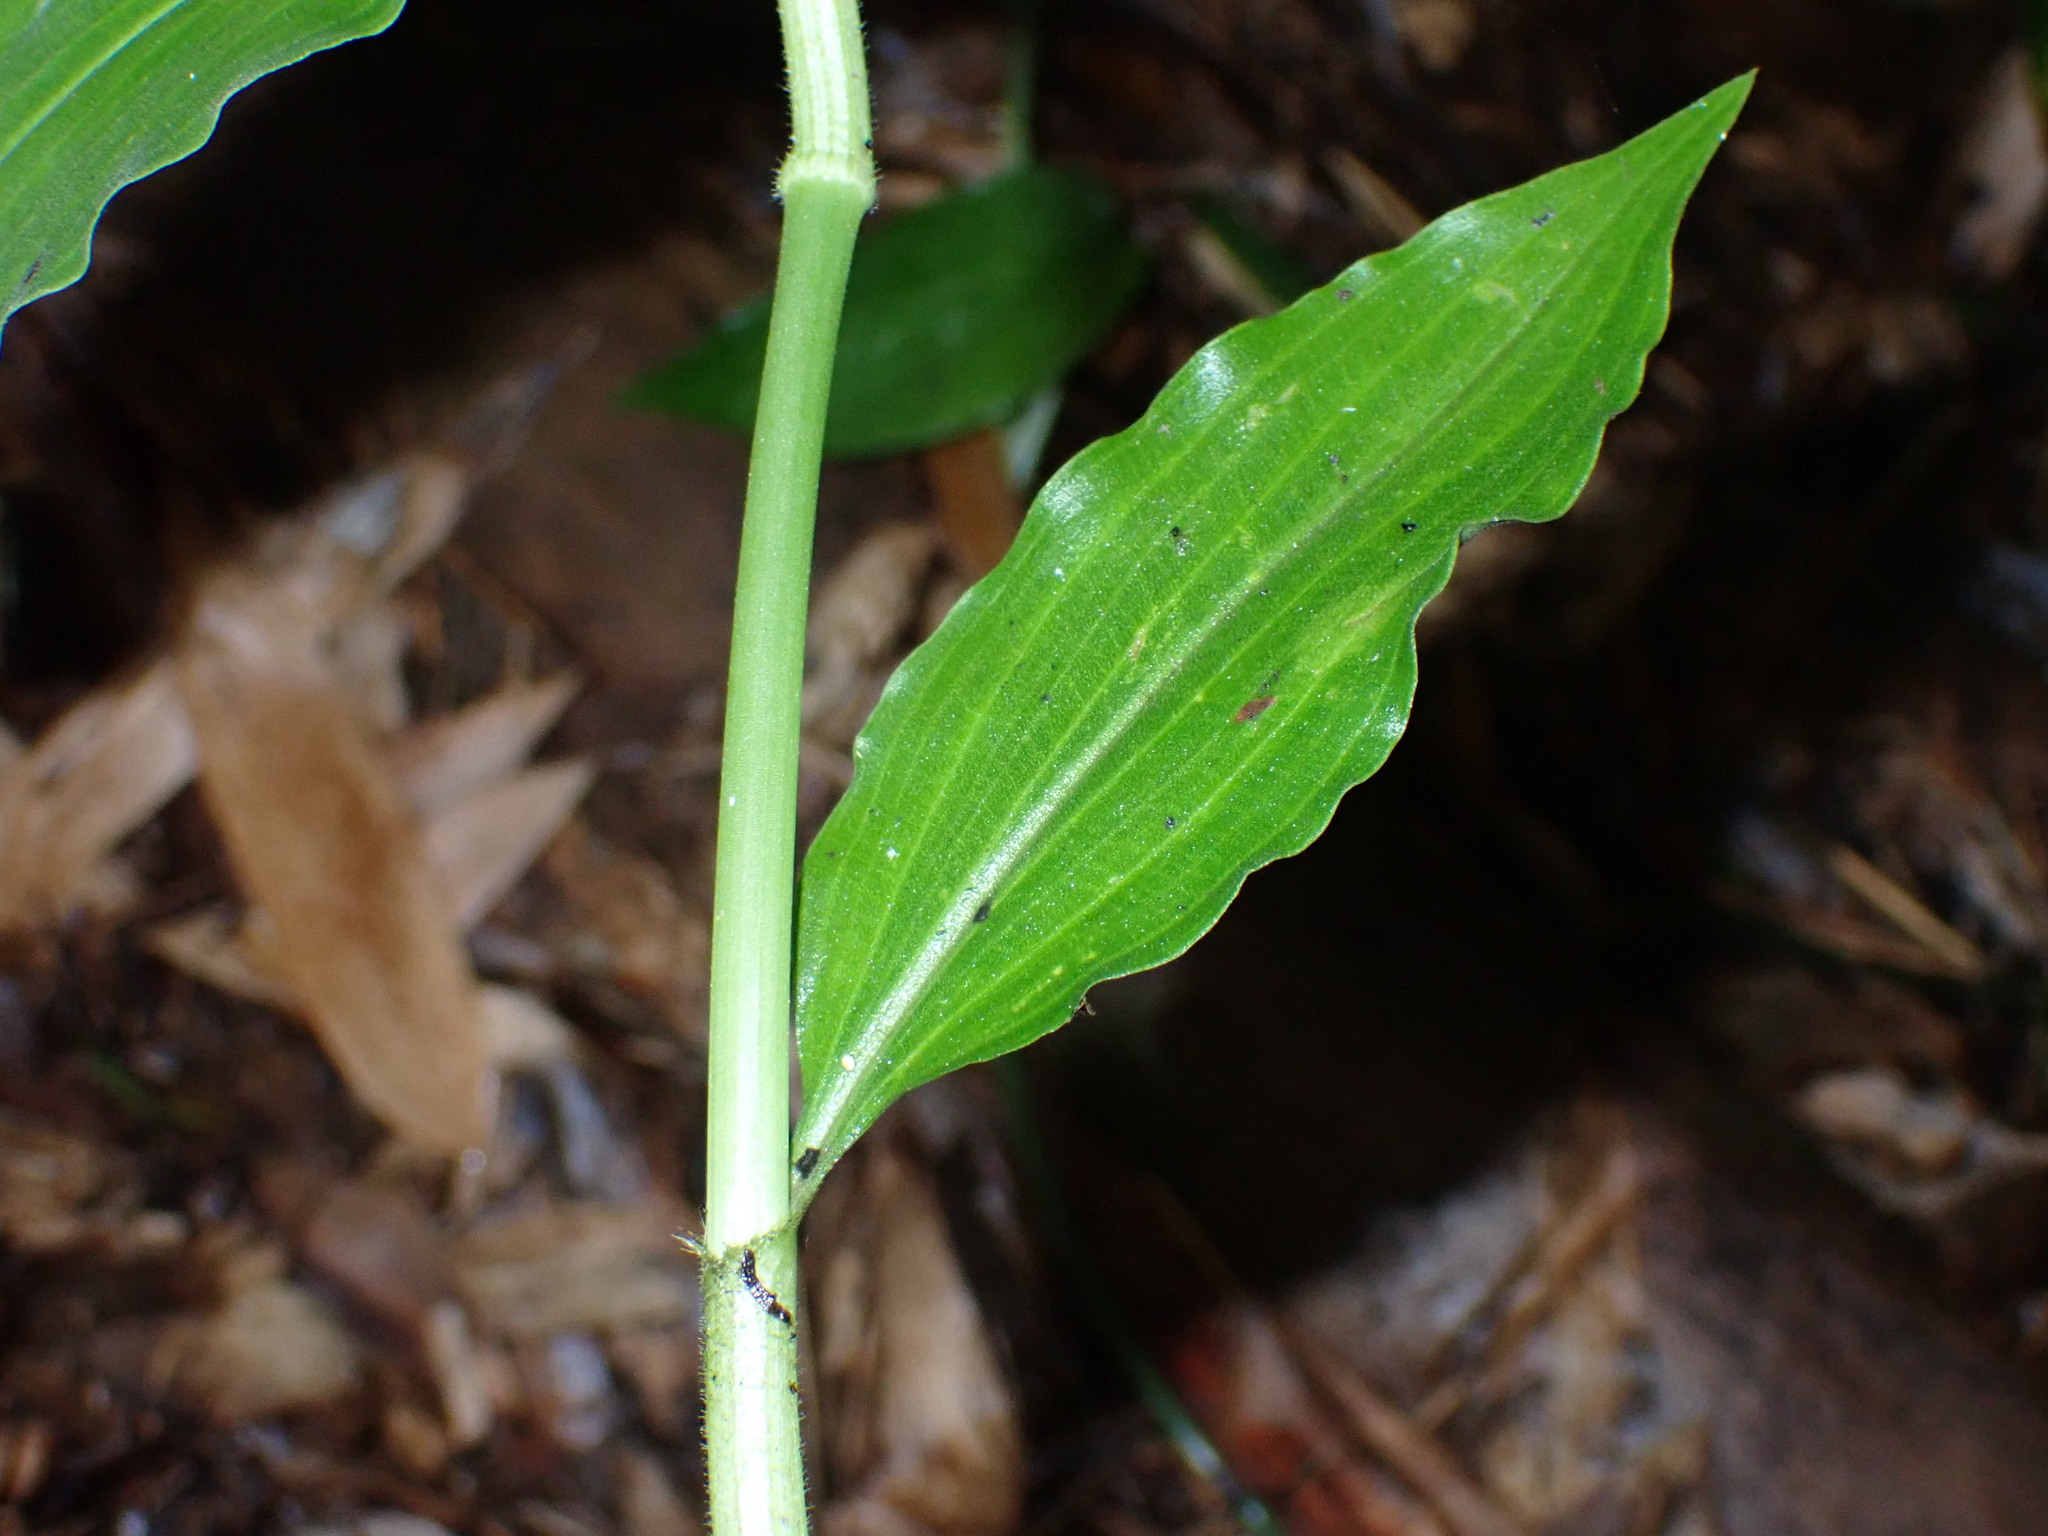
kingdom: Plantae
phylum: Tracheophyta
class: Liliopsida
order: Commelinales
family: Commelinaceae
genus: Rhopalephora
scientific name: Rhopalephora scaberrima
